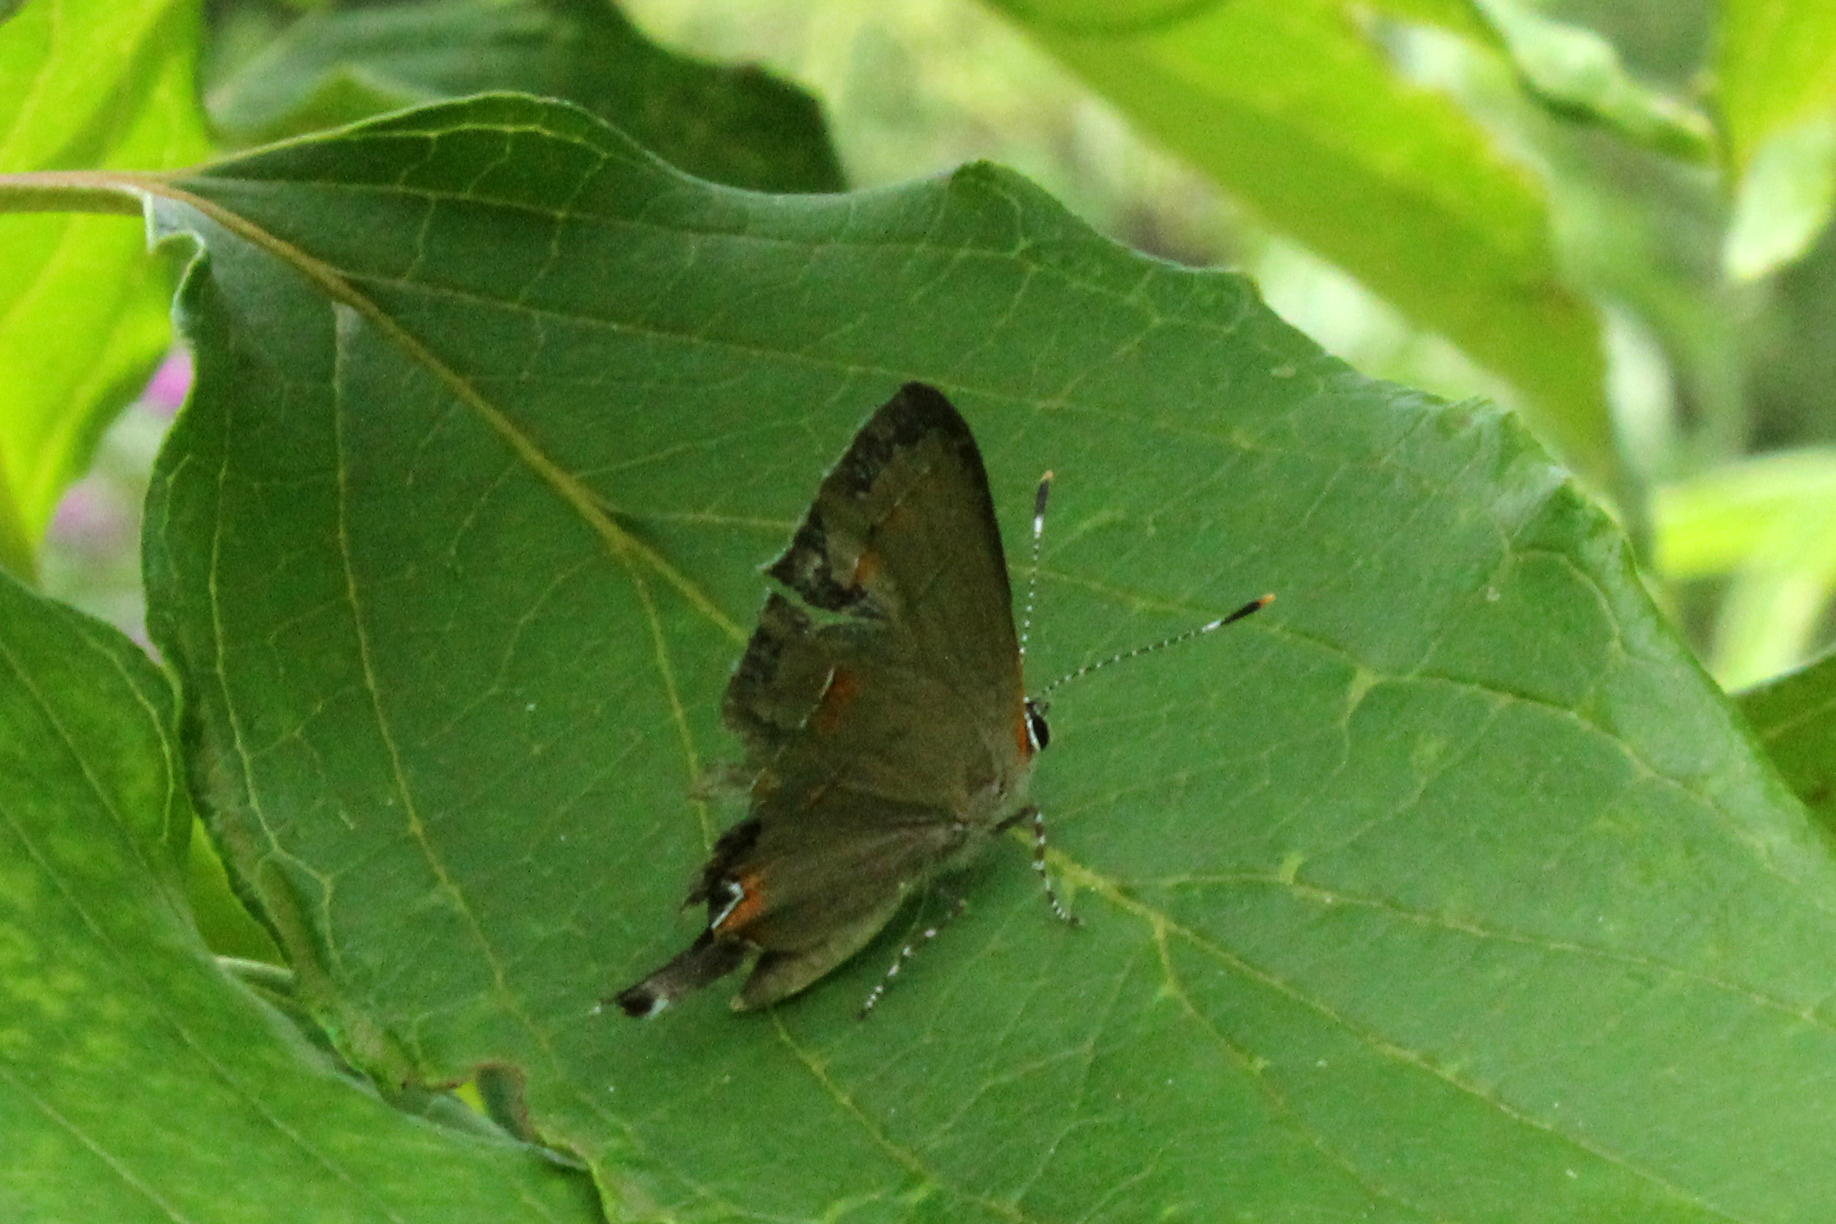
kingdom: Animalia
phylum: Arthropoda
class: Insecta
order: Lepidoptera
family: Lycaenidae
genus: Calycopis
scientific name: Calycopis cecrops
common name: Red-banded hairstreak
